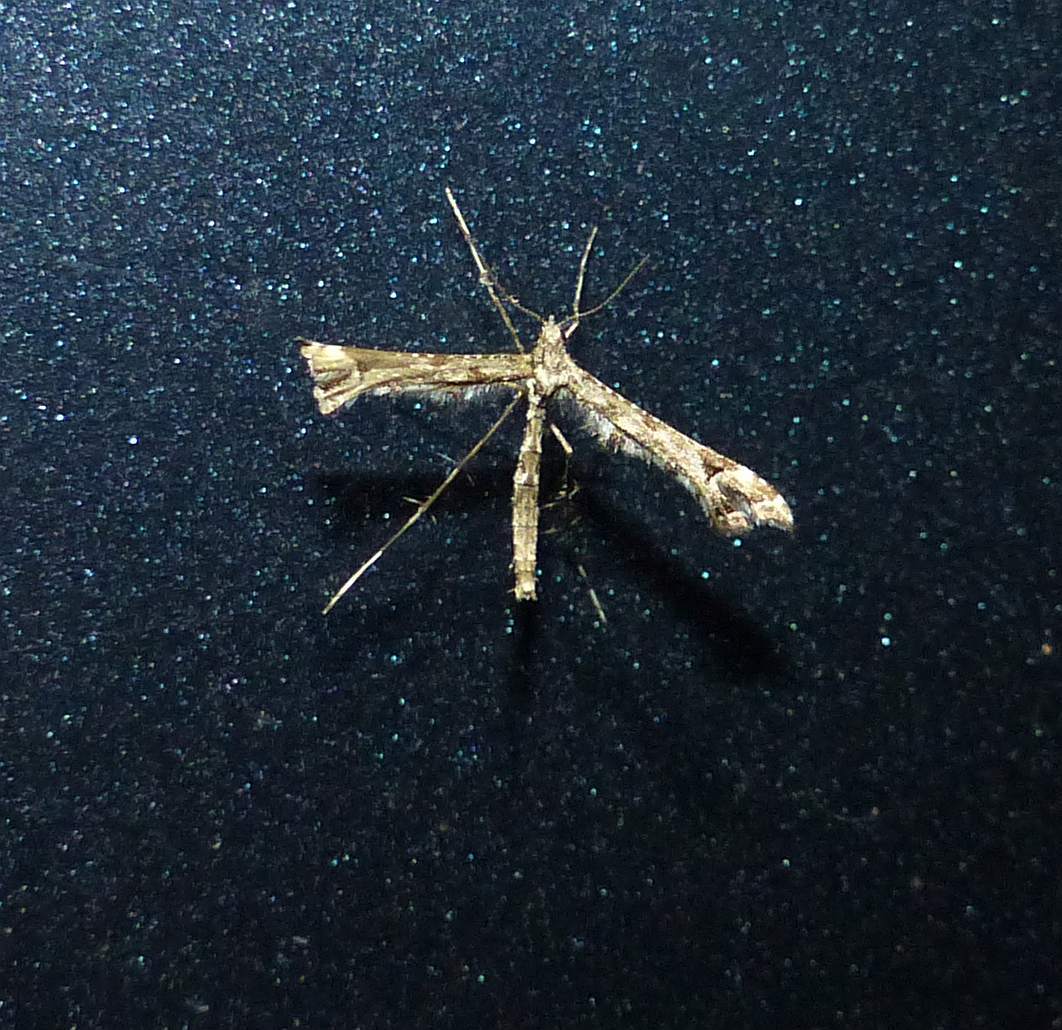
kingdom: Animalia
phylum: Arthropoda
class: Insecta
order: Lepidoptera
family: Pterophoridae
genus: Amblyptilia
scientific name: Amblyptilia pica
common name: Geranium plume moth
